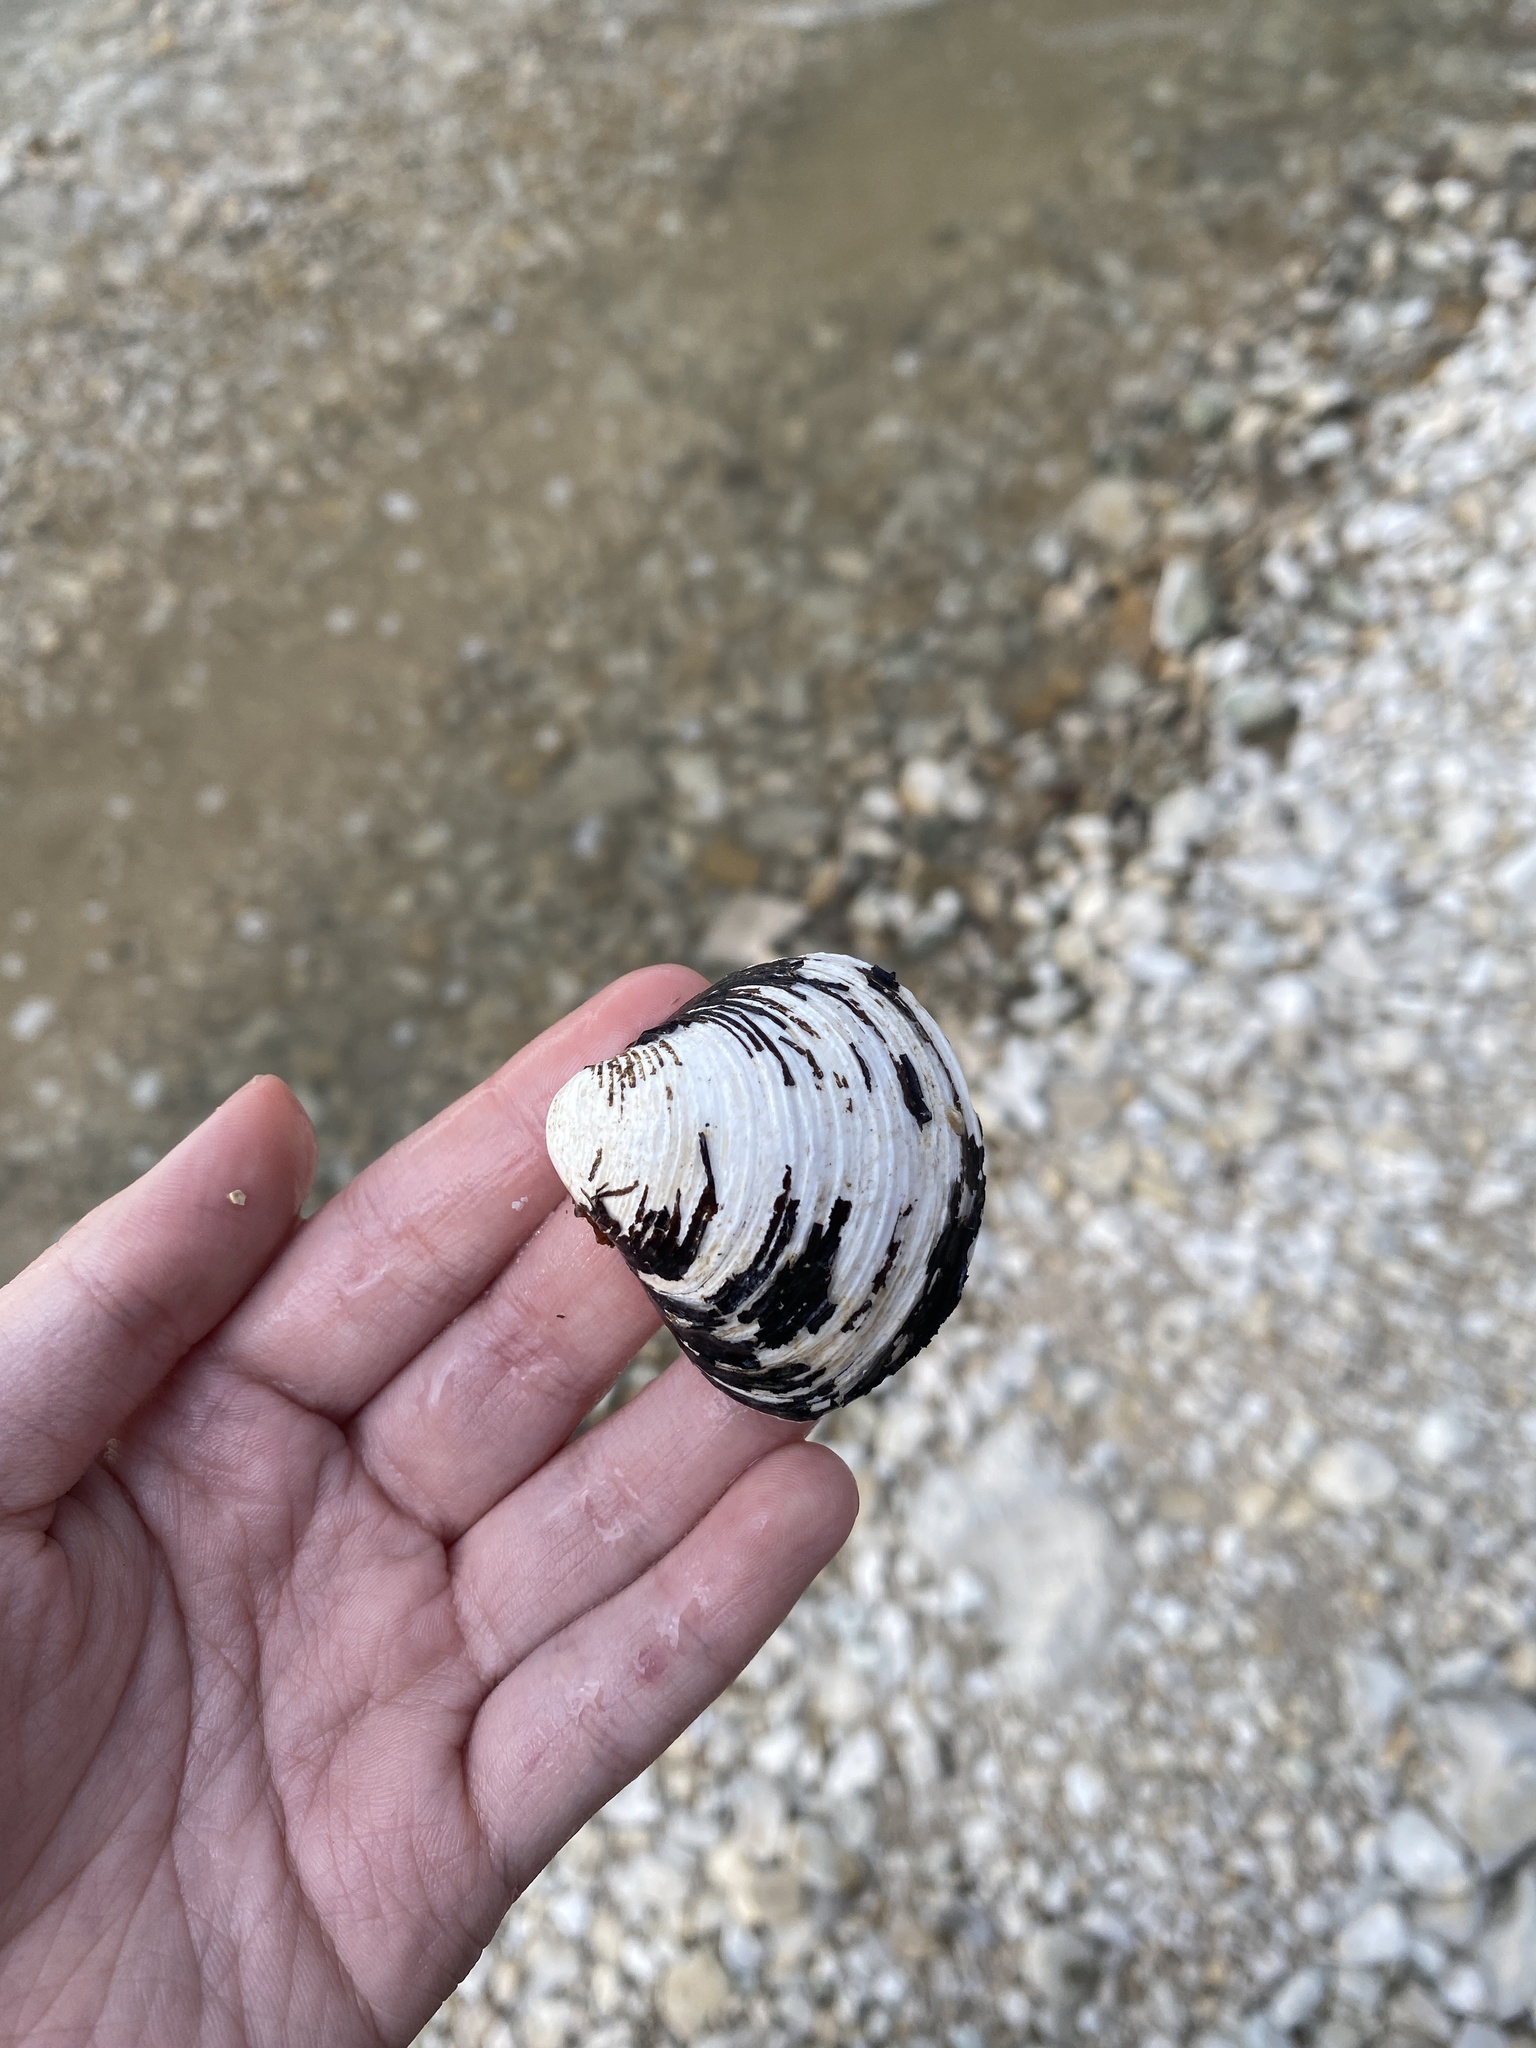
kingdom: Animalia
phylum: Mollusca
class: Bivalvia
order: Venerida
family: Cyrenidae
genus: Corbicula
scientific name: Corbicula fluminea
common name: Asian clam
